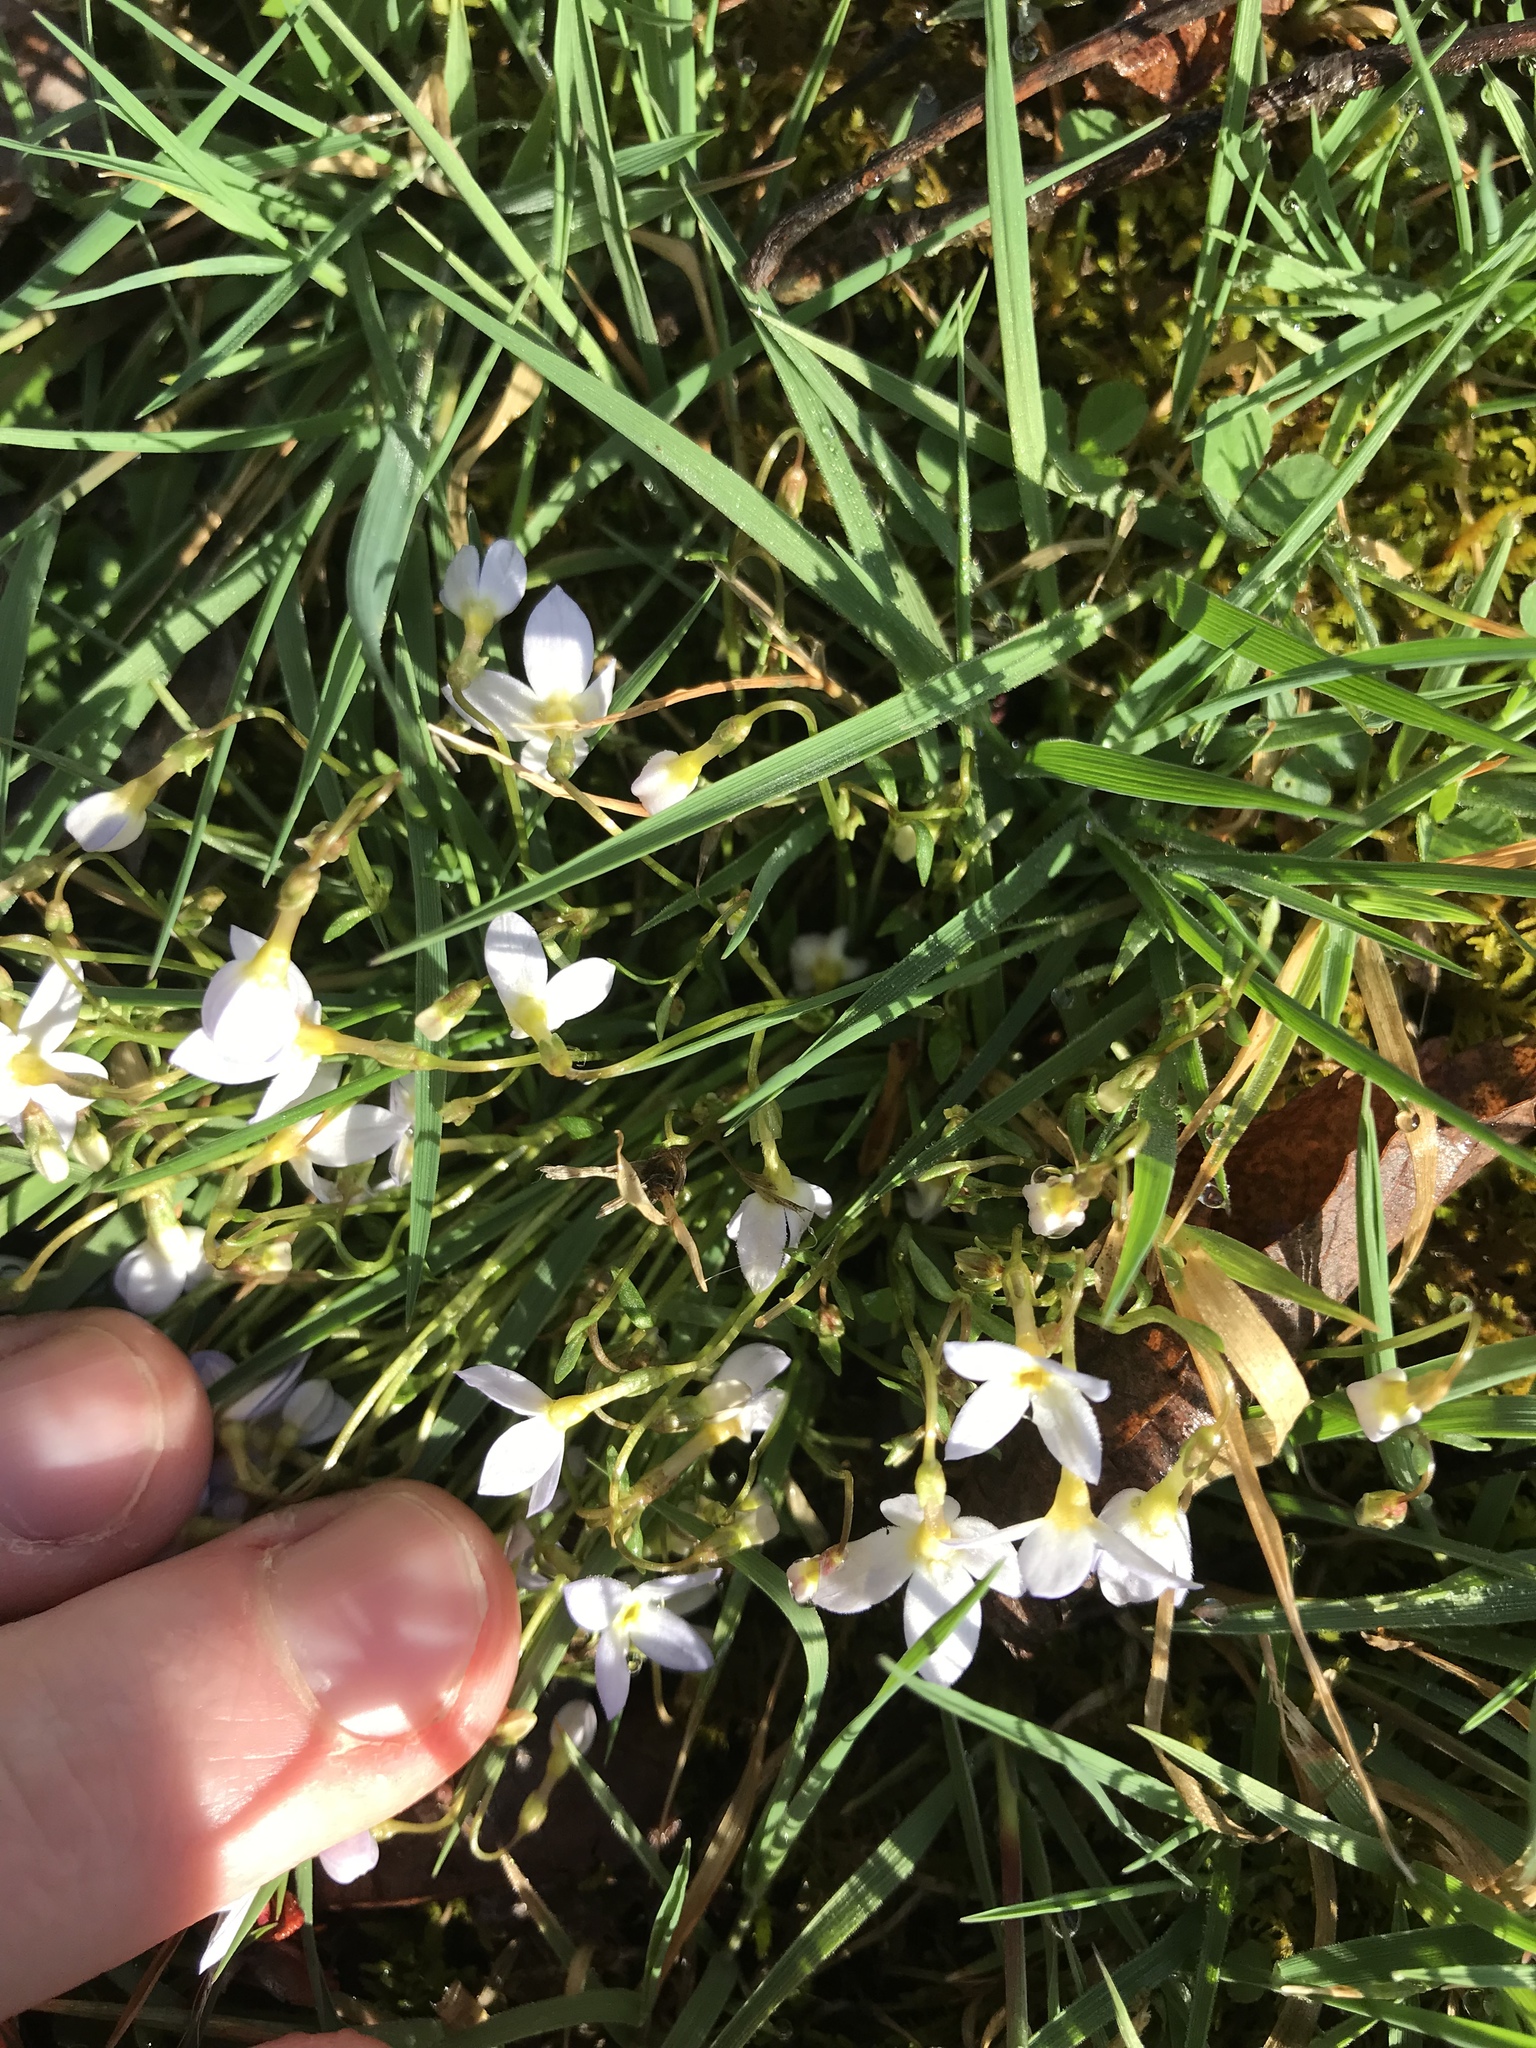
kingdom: Plantae
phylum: Tracheophyta
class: Magnoliopsida
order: Gentianales
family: Rubiaceae
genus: Houstonia
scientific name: Houstonia caerulea
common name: Bluets
